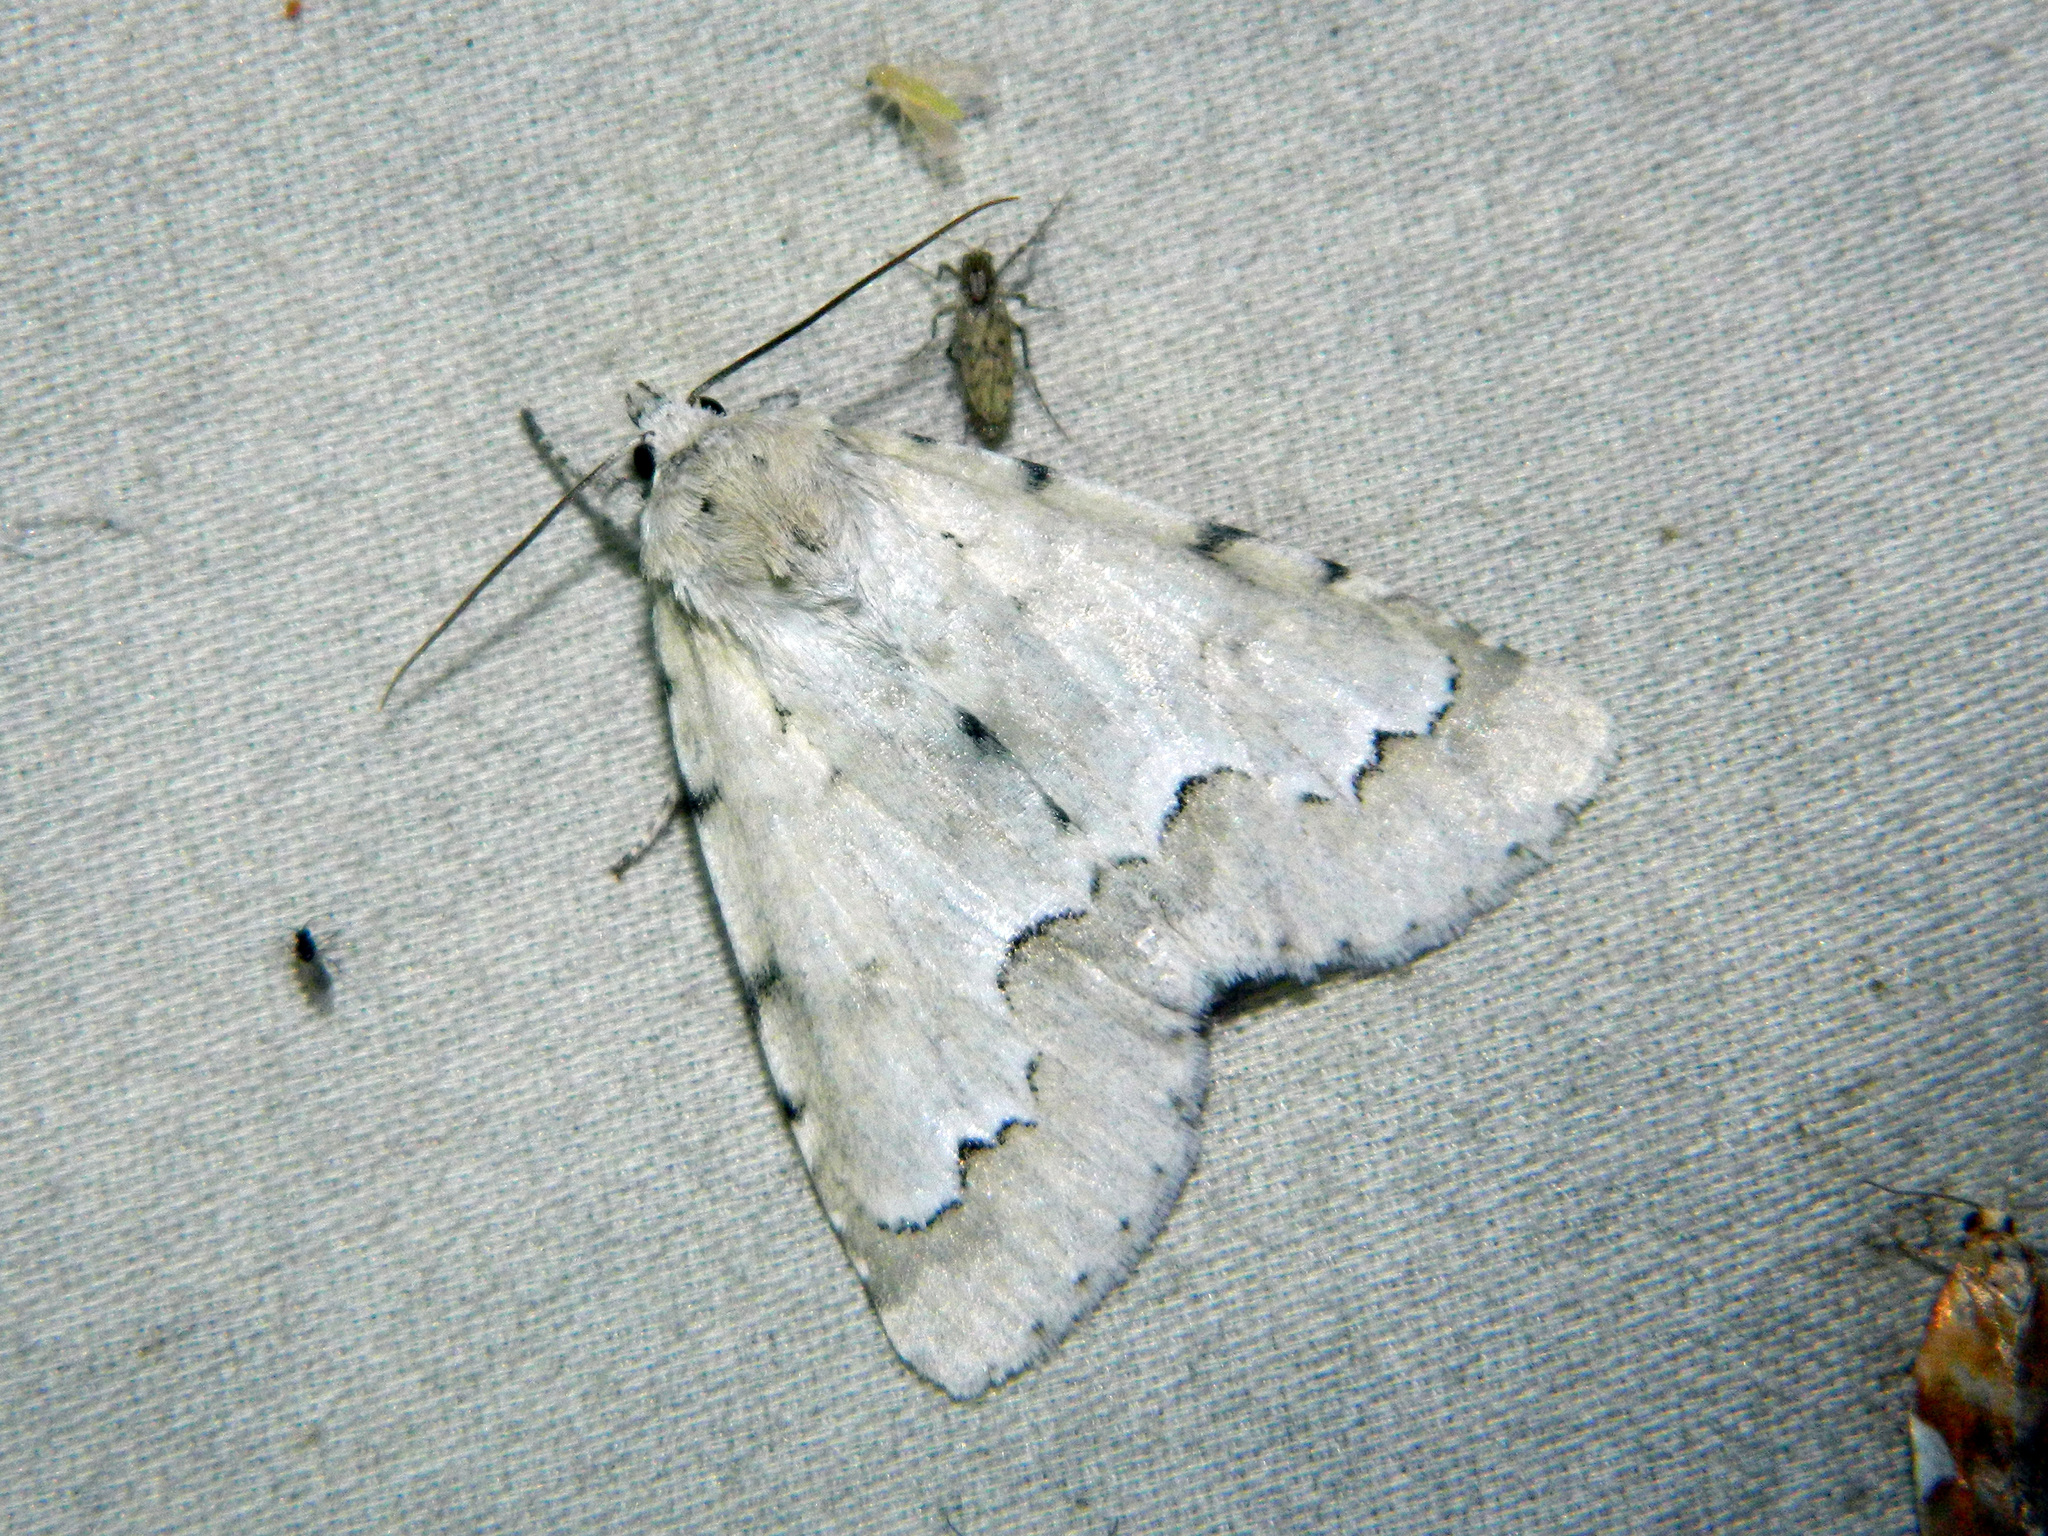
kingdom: Animalia
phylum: Arthropoda
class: Insecta
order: Lepidoptera
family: Noctuidae
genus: Acronicta
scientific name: Acronicta innotata
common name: Unmarked dagger
